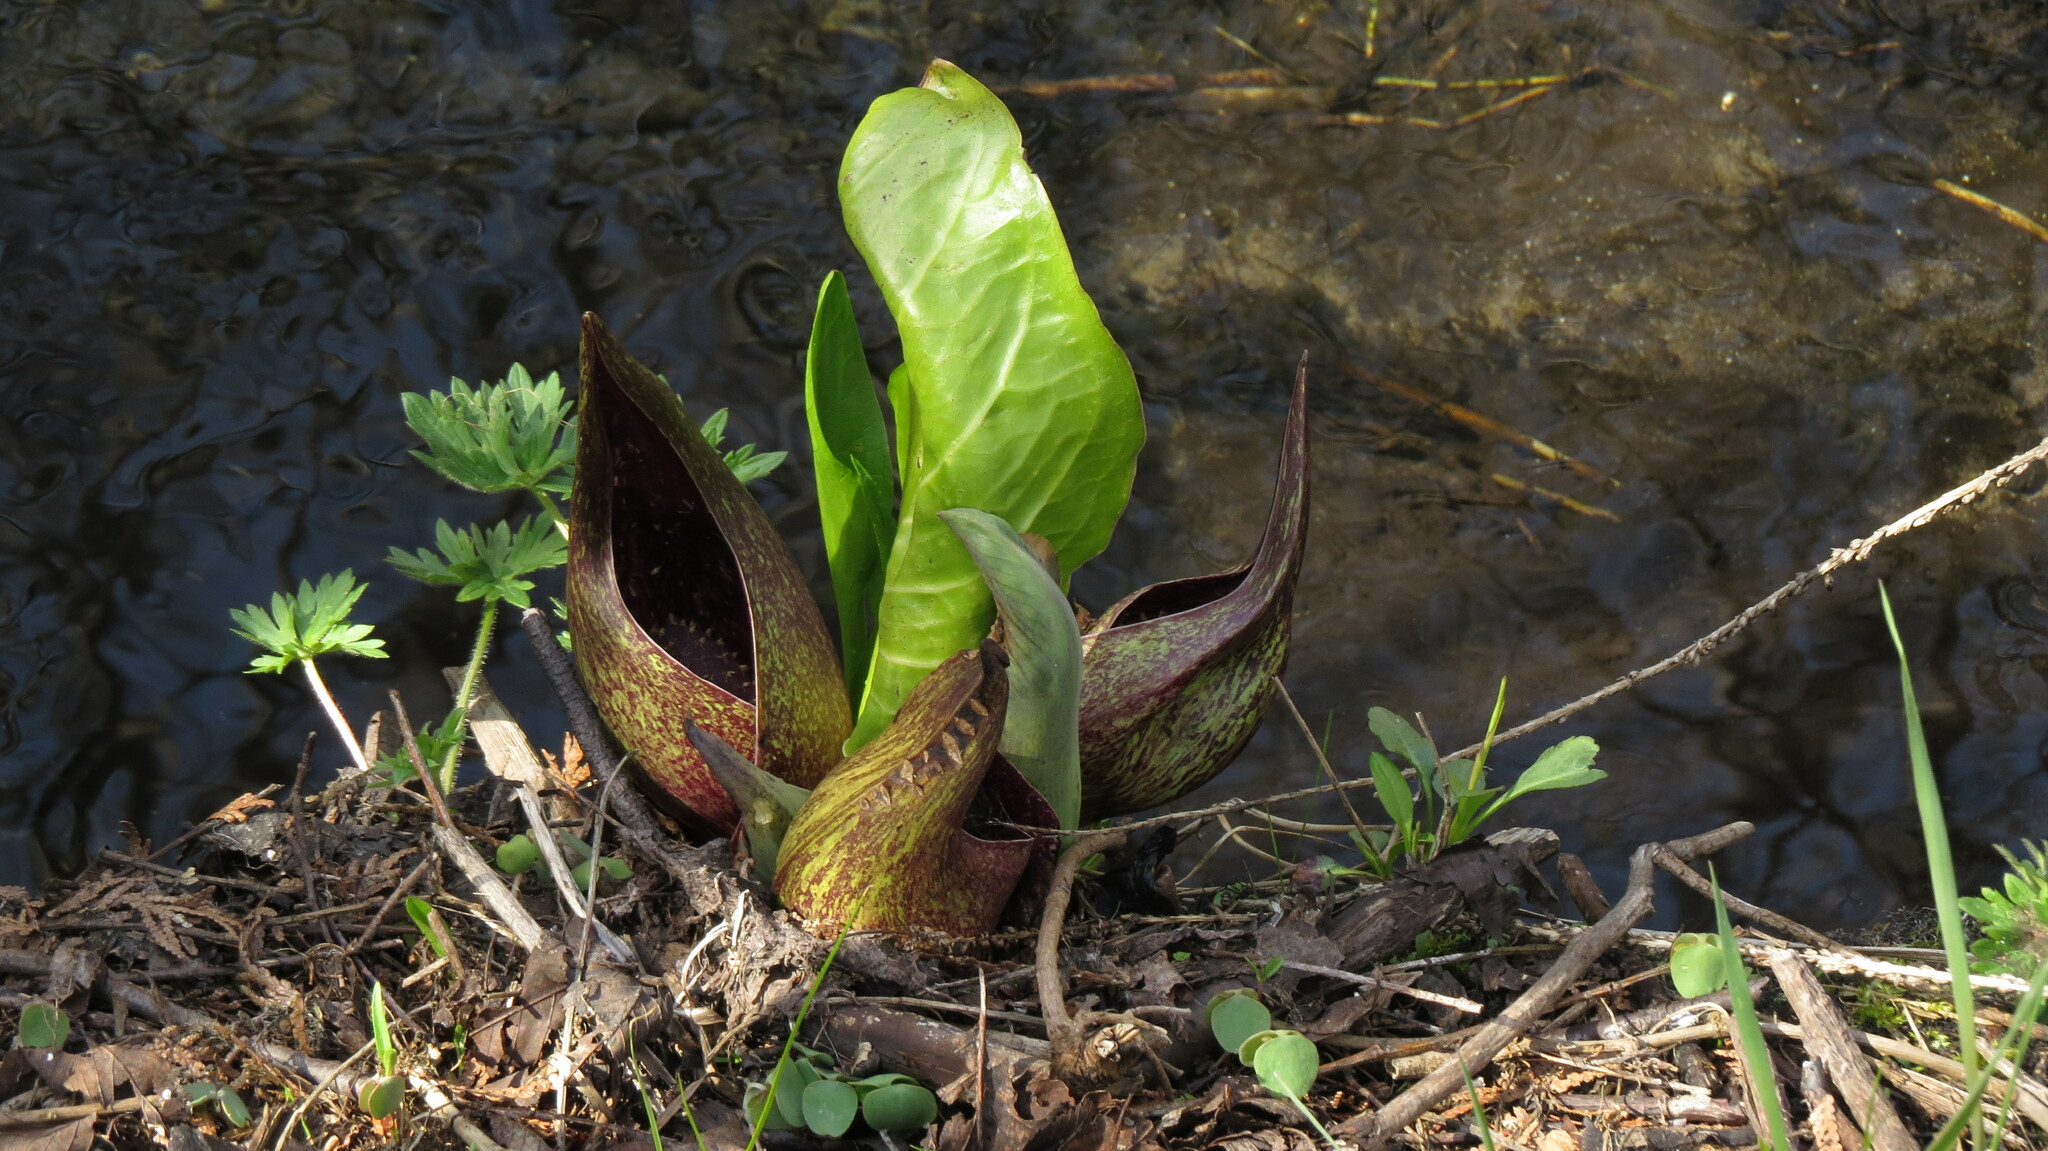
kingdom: Plantae
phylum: Tracheophyta
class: Liliopsida
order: Alismatales
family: Araceae
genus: Symplocarpus
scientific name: Symplocarpus foetidus
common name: Eastern skunk cabbage
